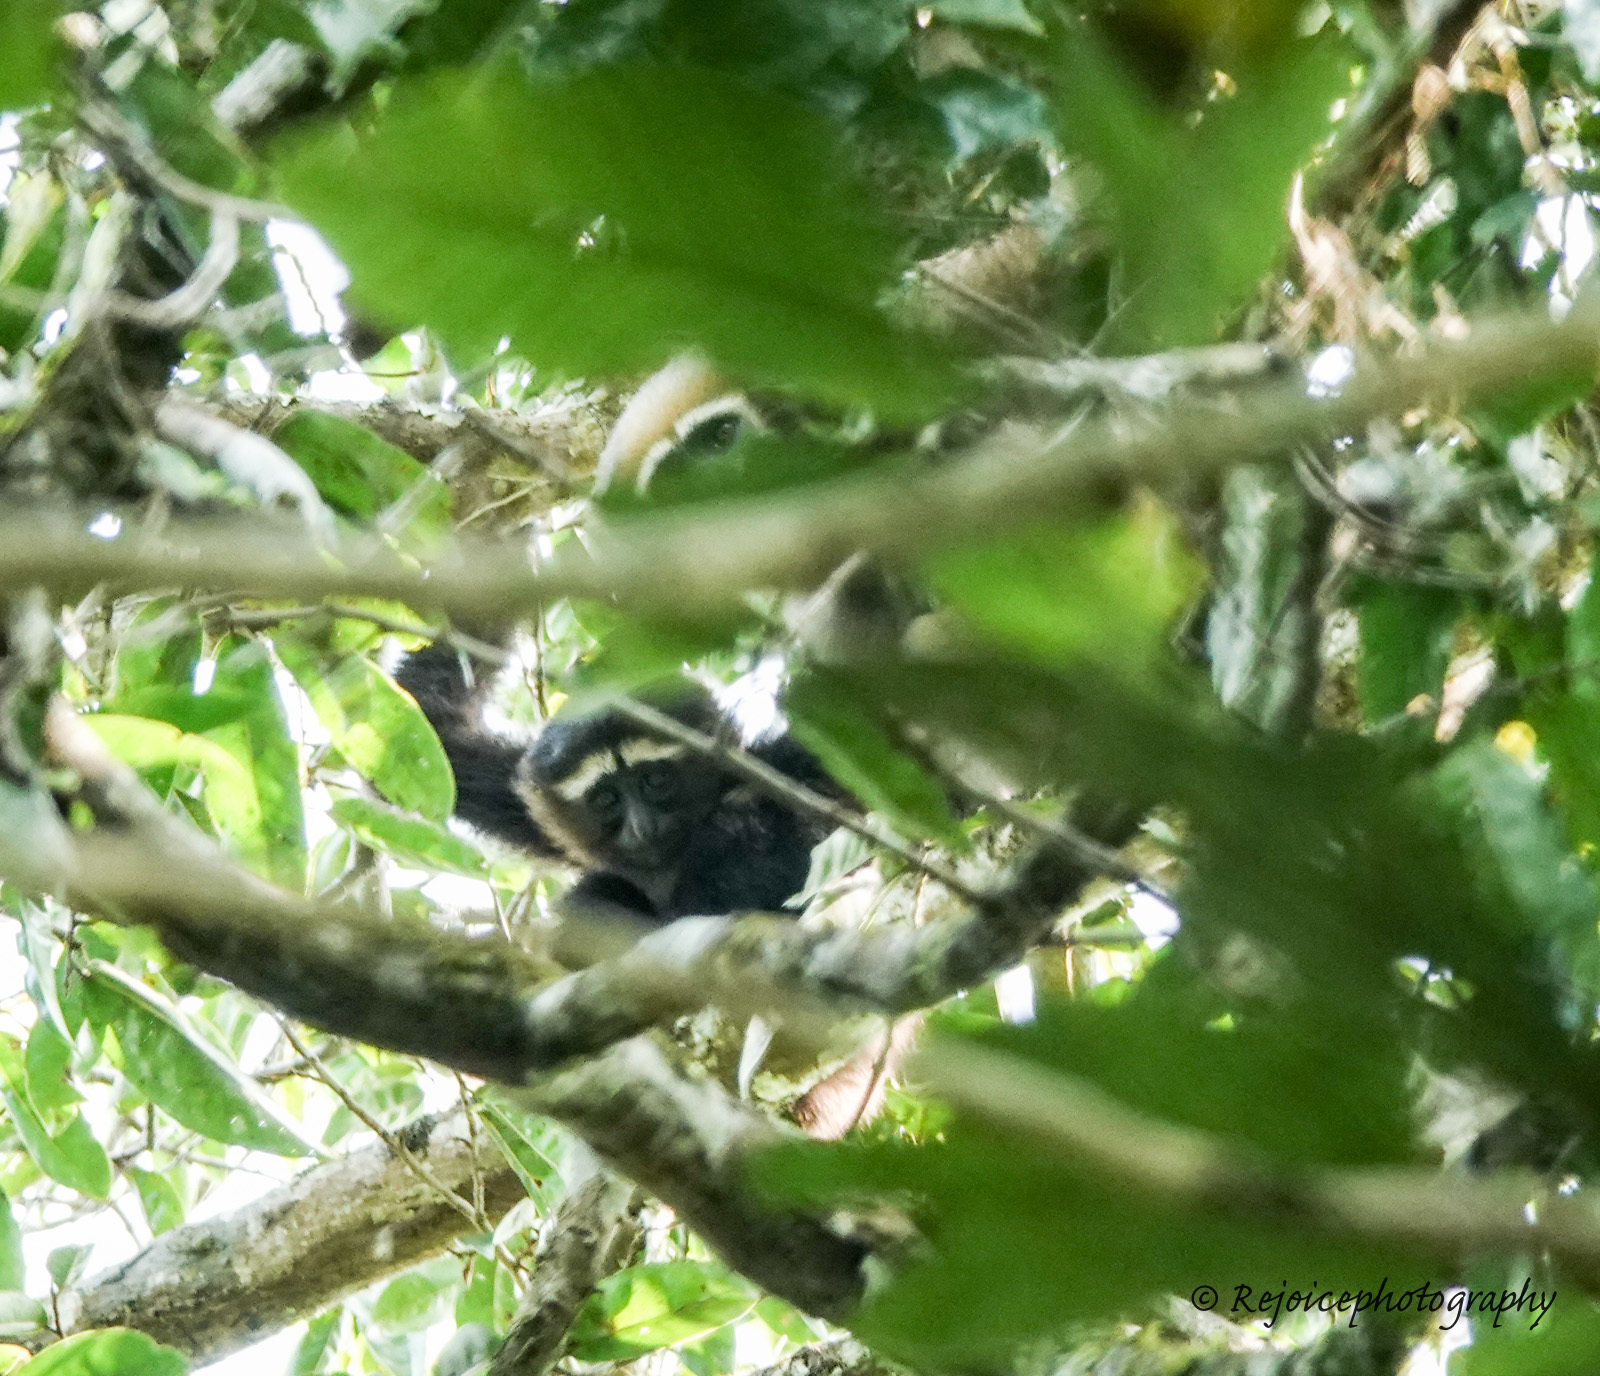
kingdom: Animalia
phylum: Chordata
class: Mammalia
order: Primates
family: Hylobatidae
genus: Hoolock
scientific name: Hoolock hoolock
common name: Western hoolock gibbon
